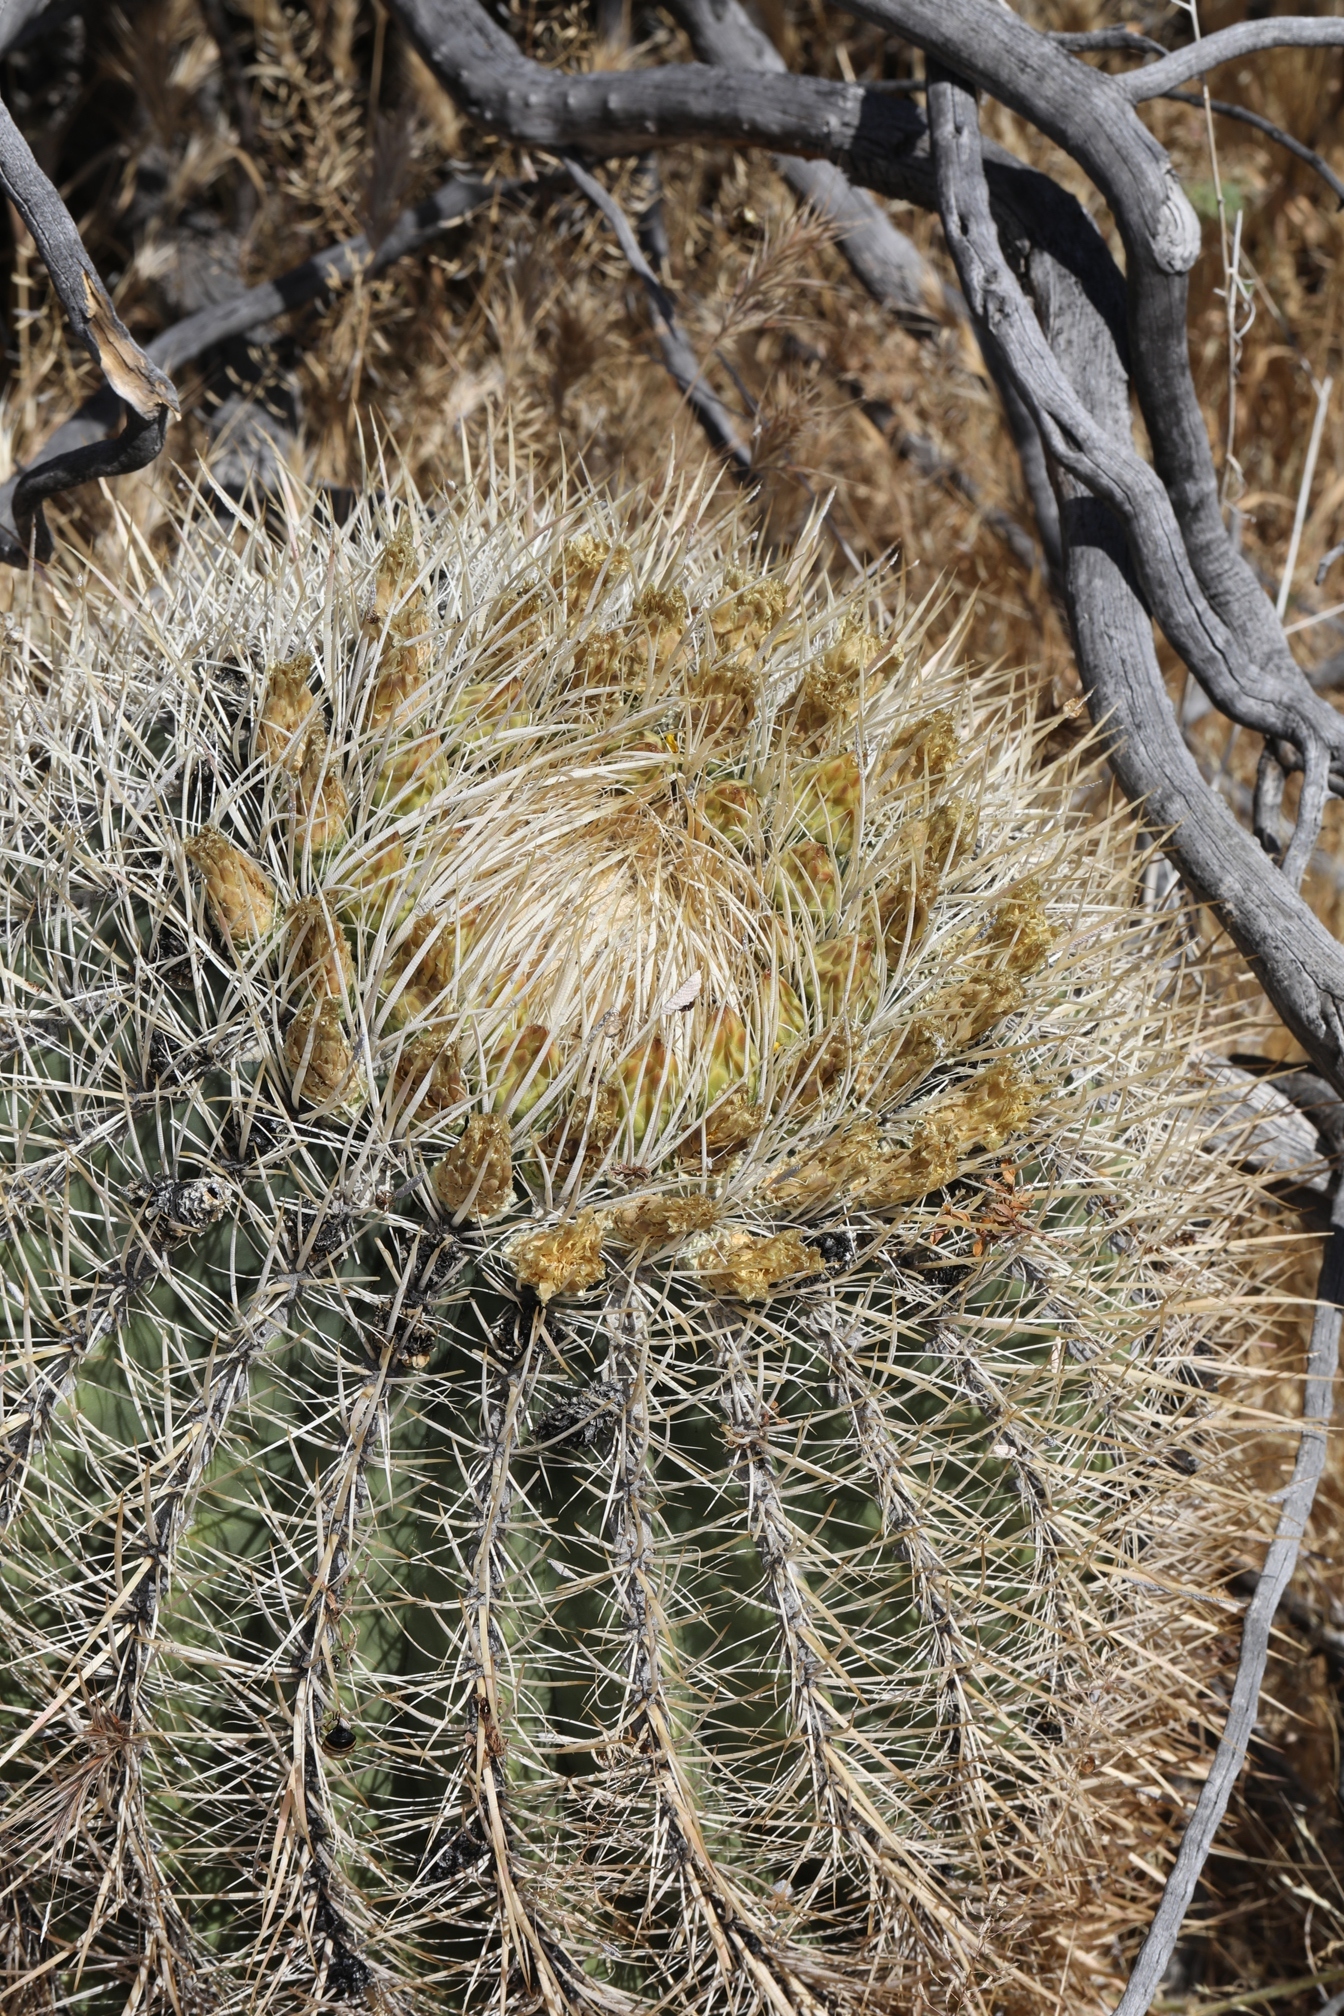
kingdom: Plantae
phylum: Tracheophyta
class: Magnoliopsida
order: Caryophyllales
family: Cactaceae
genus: Ferocactus
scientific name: Ferocactus cylindraceus
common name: California barrel cactus
